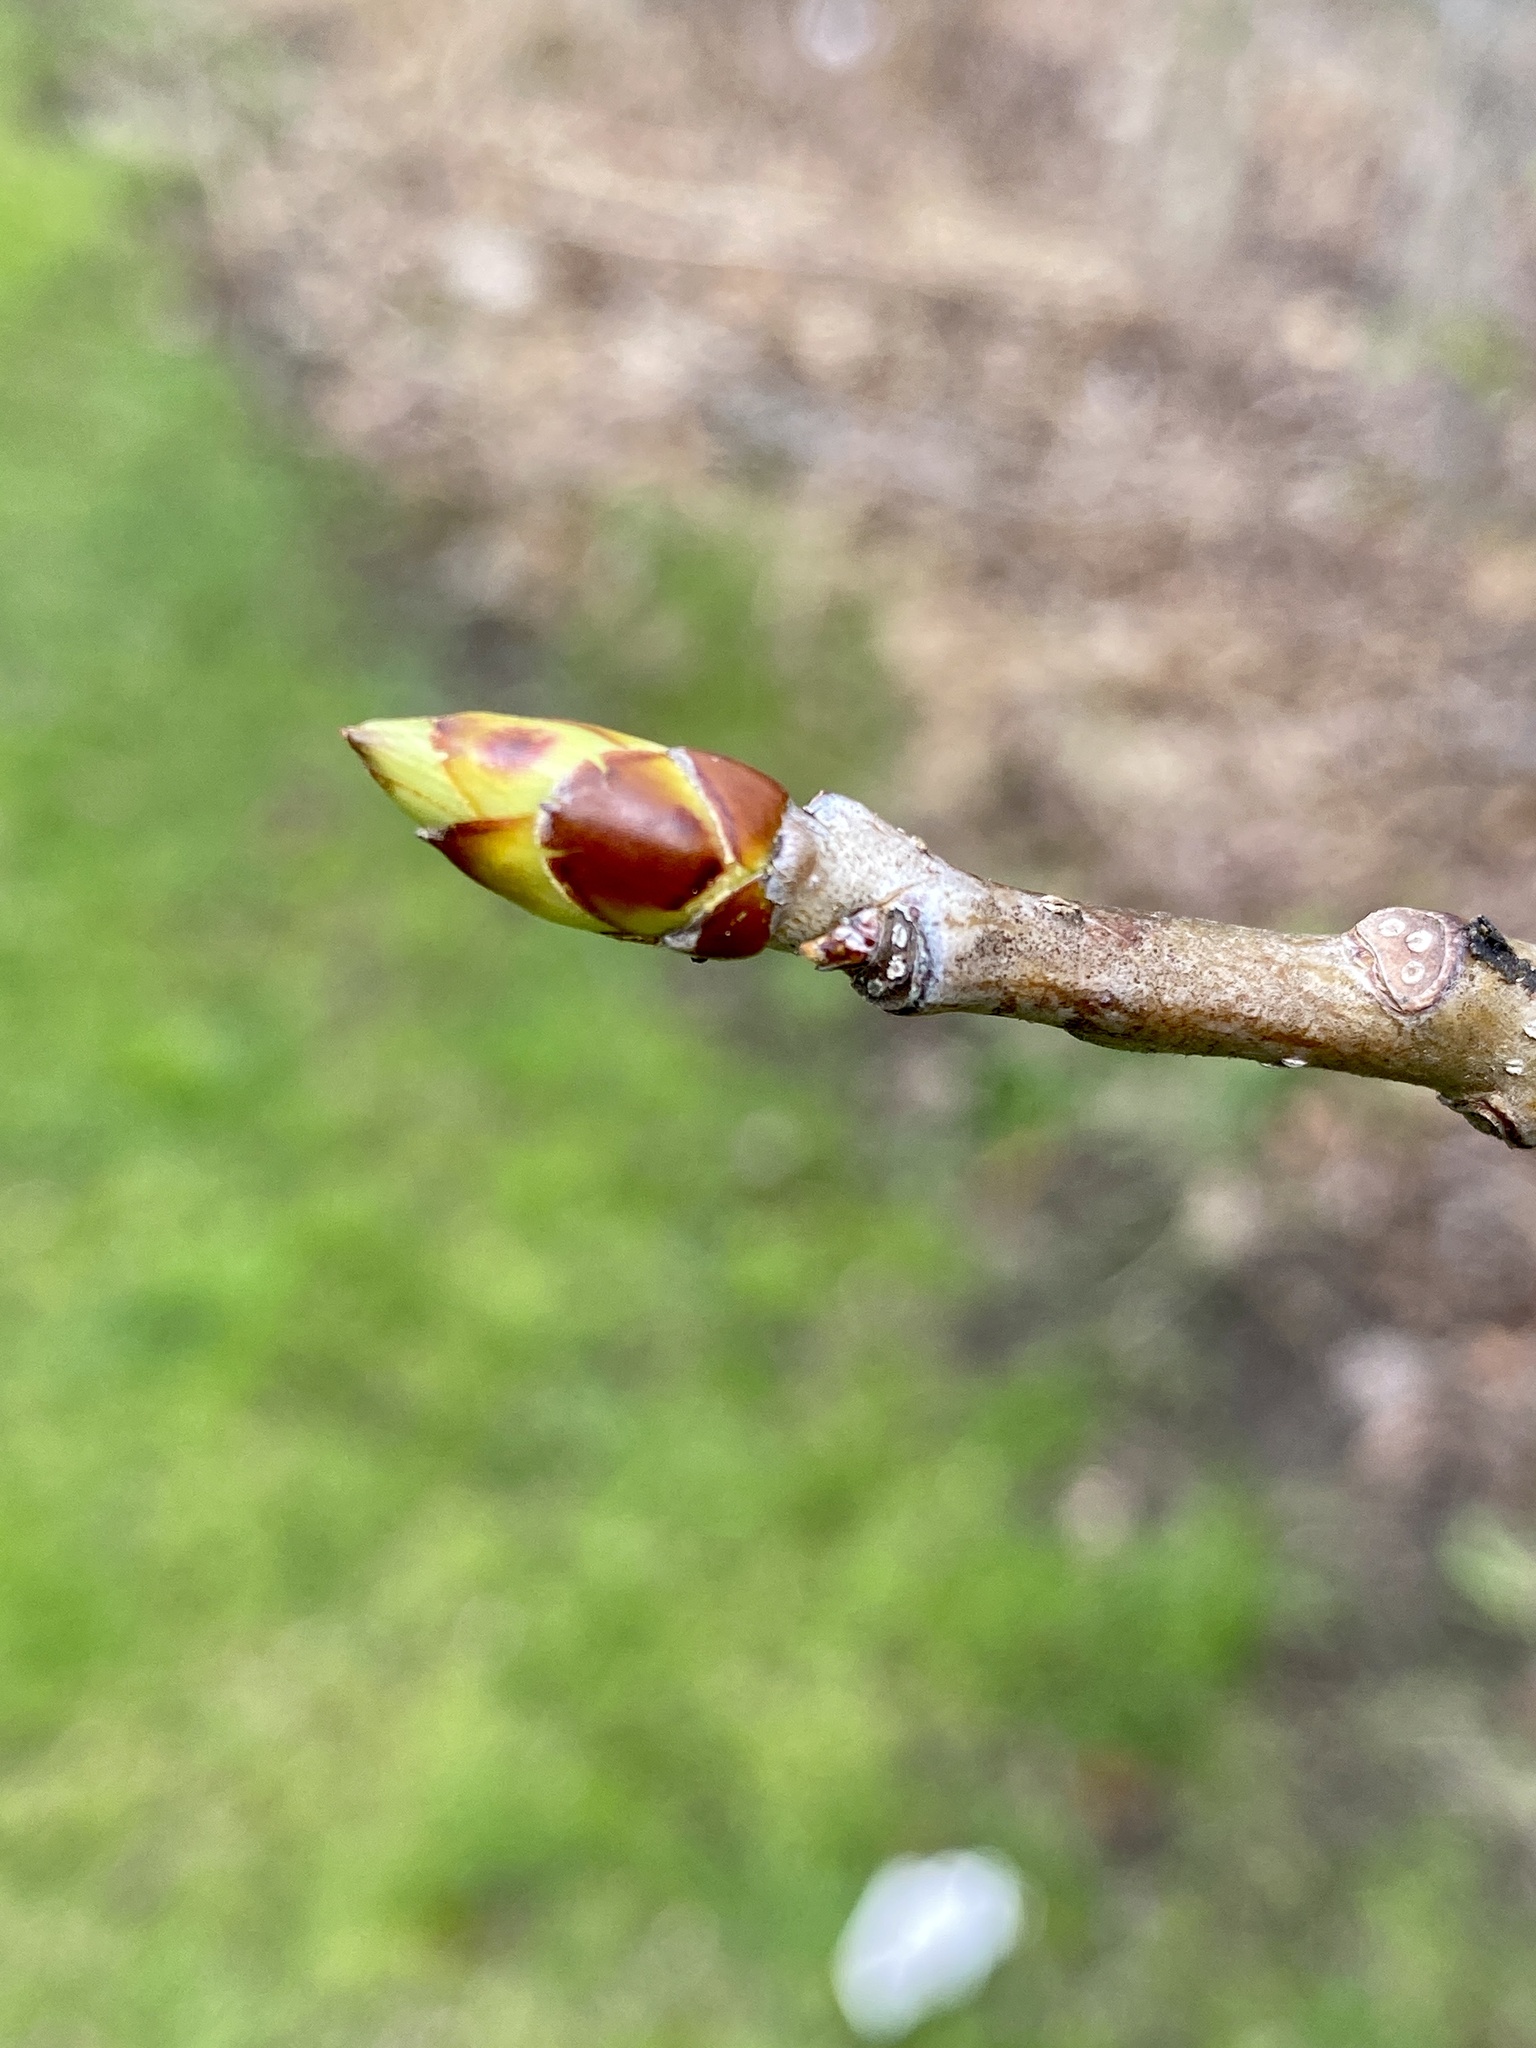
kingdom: Plantae
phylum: Tracheophyta
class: Magnoliopsida
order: Saxifragales
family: Altingiaceae
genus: Liquidambar
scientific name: Liquidambar styraciflua
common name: Sweet gum
